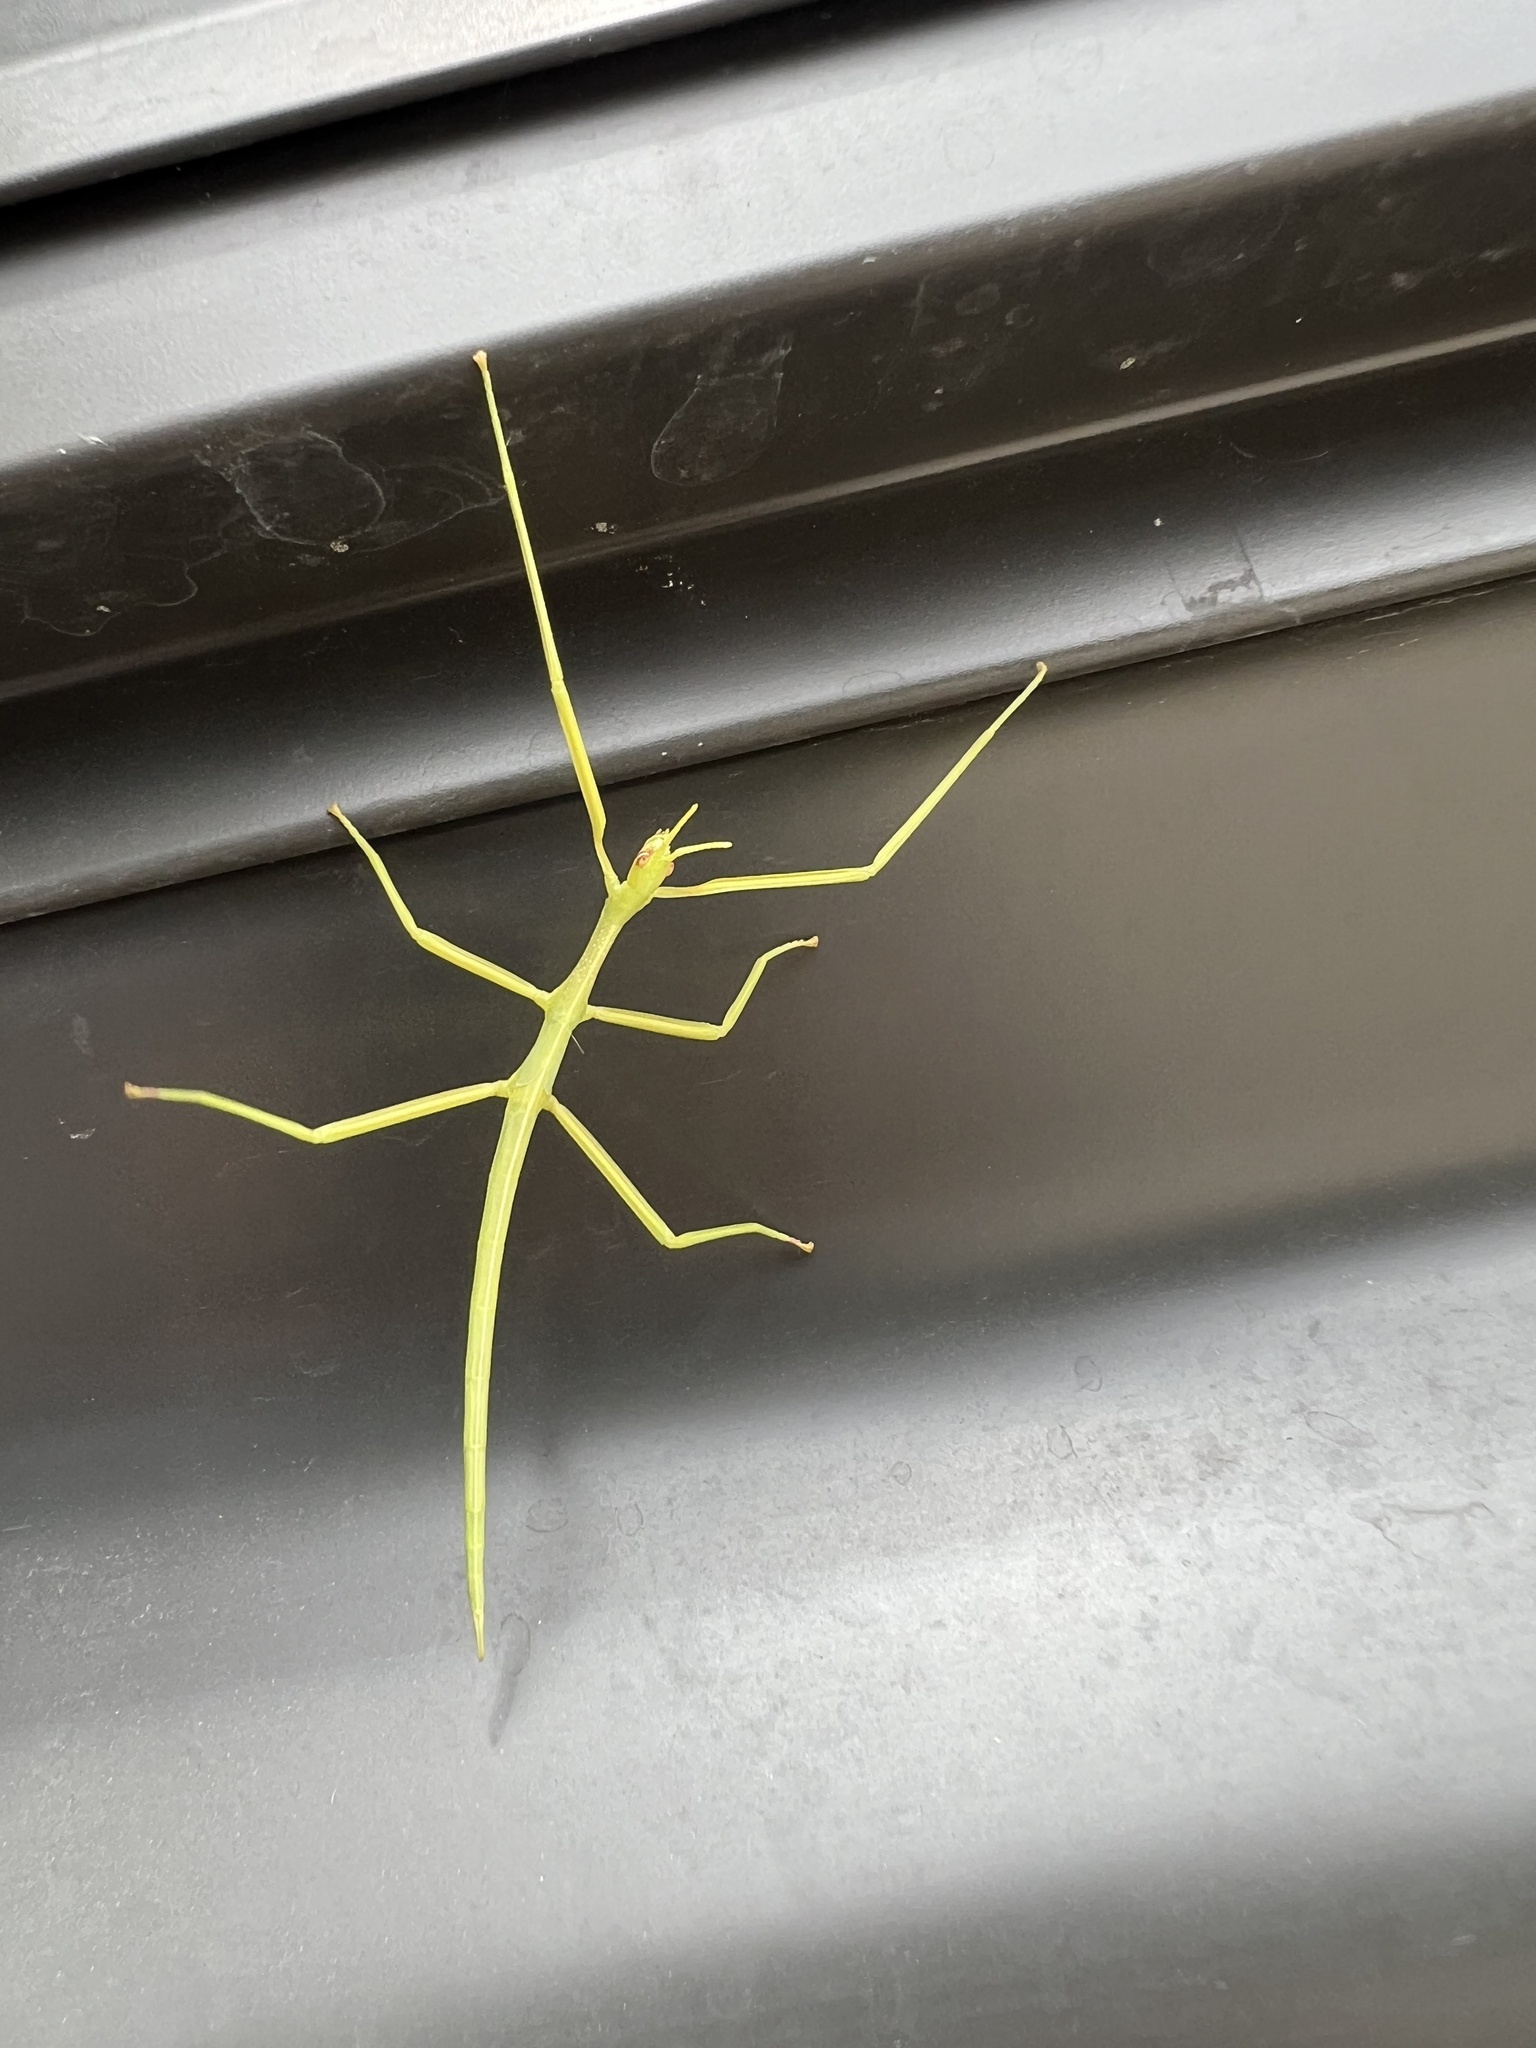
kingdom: Animalia
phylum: Arthropoda
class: Insecta
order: Phasmida
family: Phasmatidae
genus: Didymuria
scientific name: Didymuria violescens
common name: Spur-legged stick-insect
